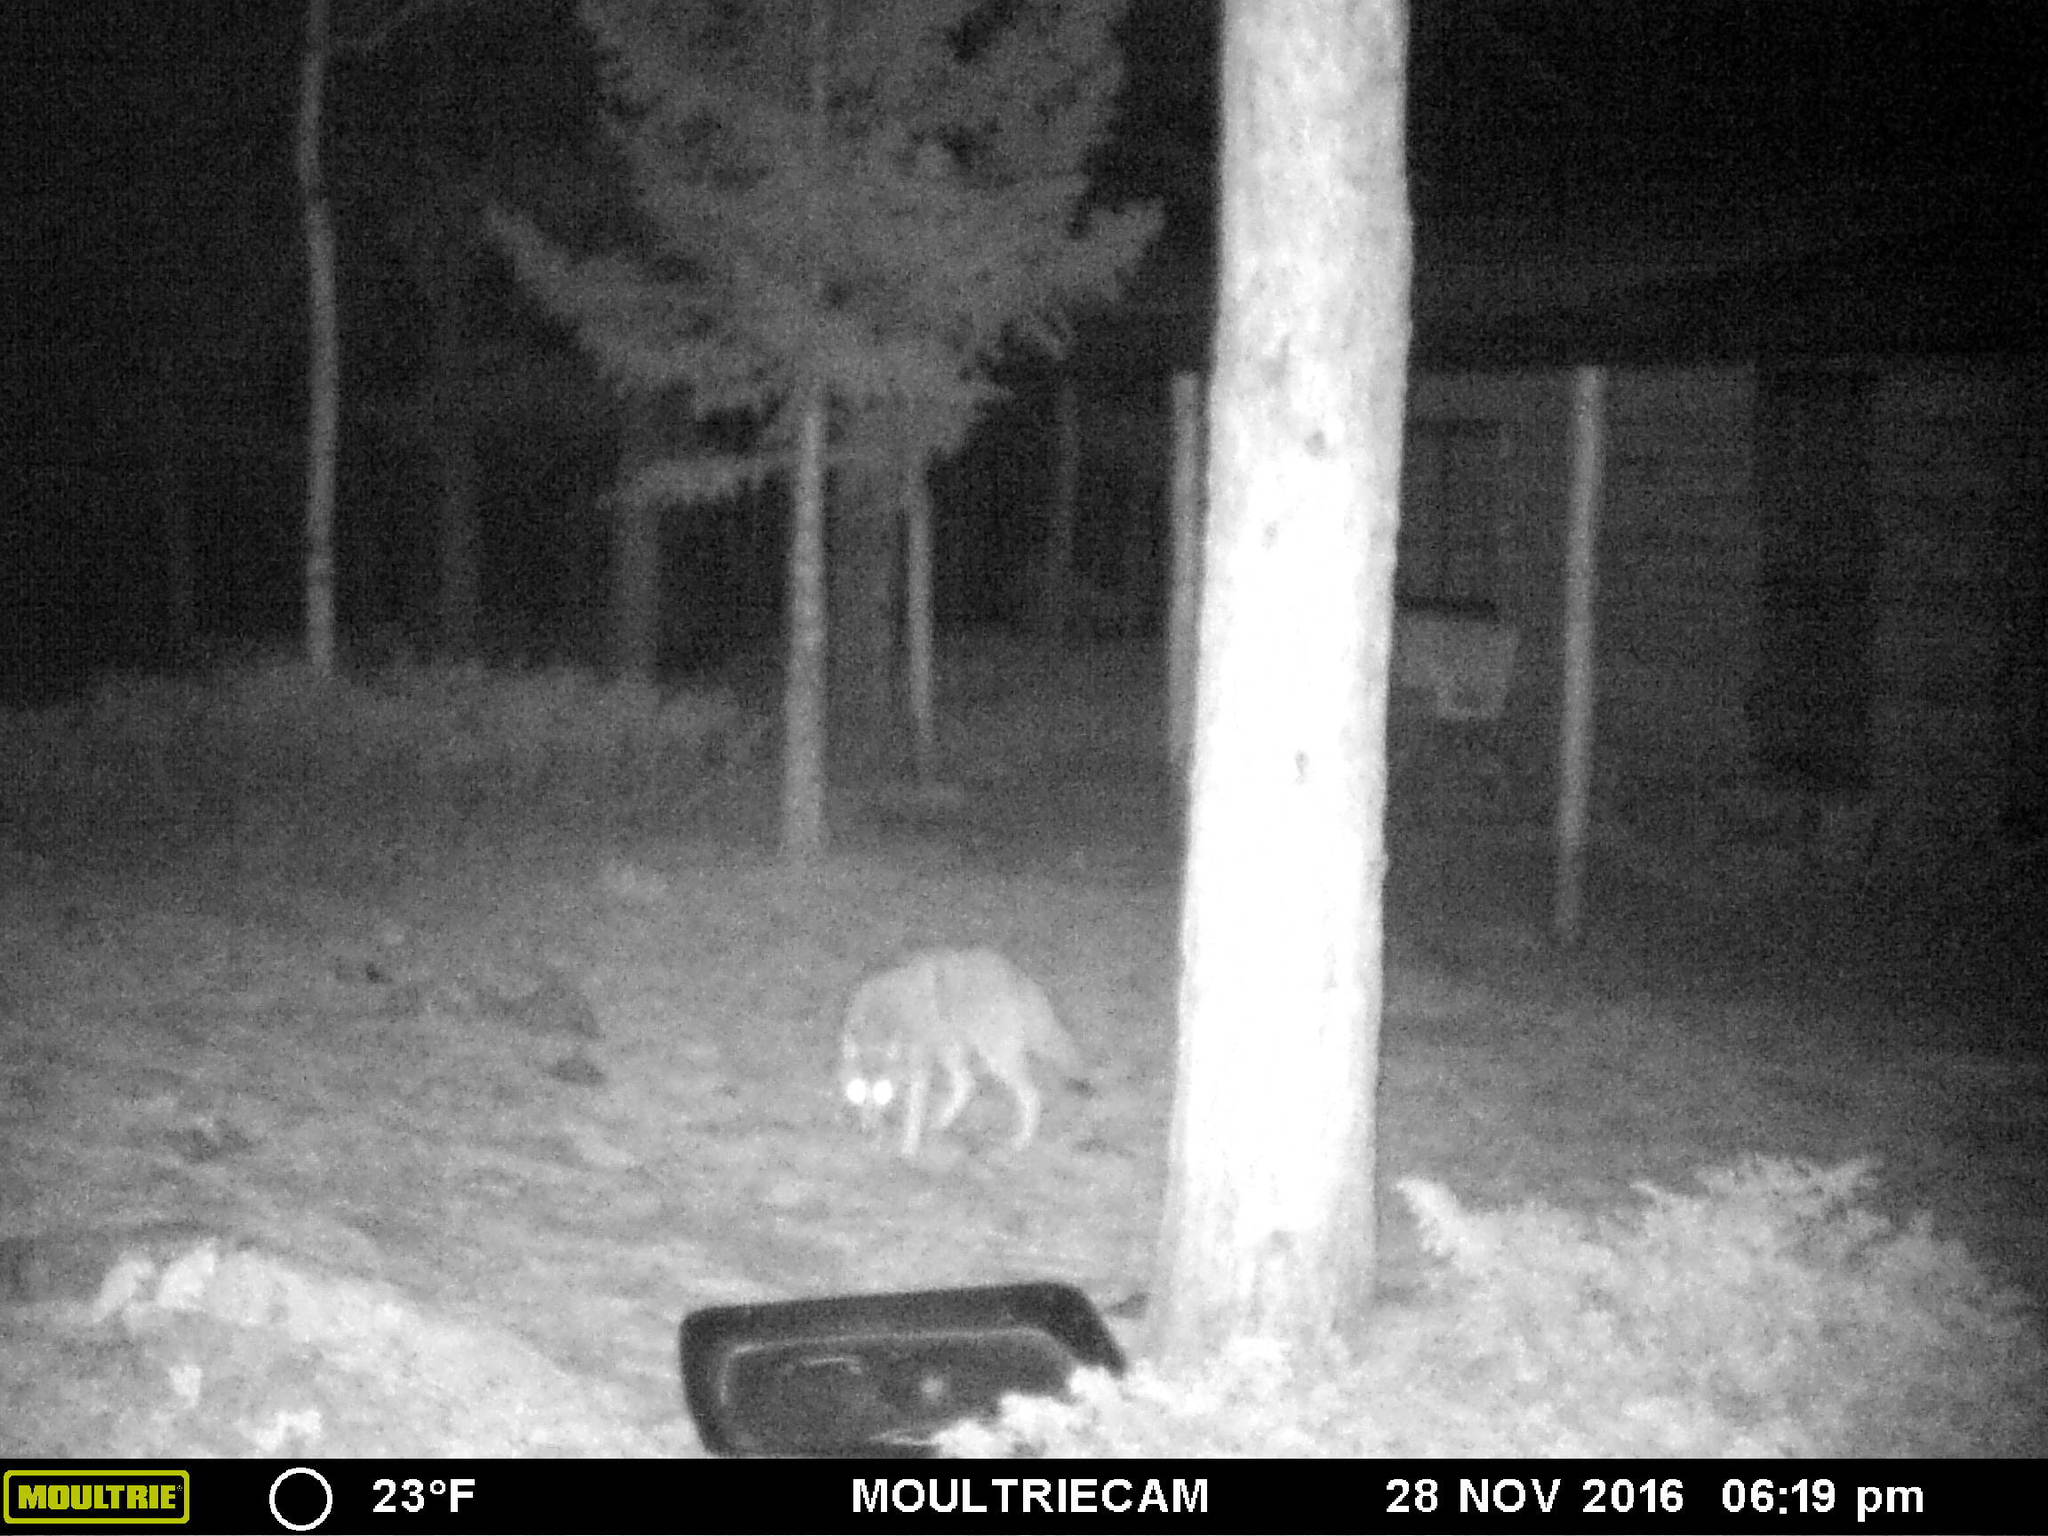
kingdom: Animalia
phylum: Chordata
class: Mammalia
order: Carnivora
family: Canidae
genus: Canis
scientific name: Canis latrans
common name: Coyote
